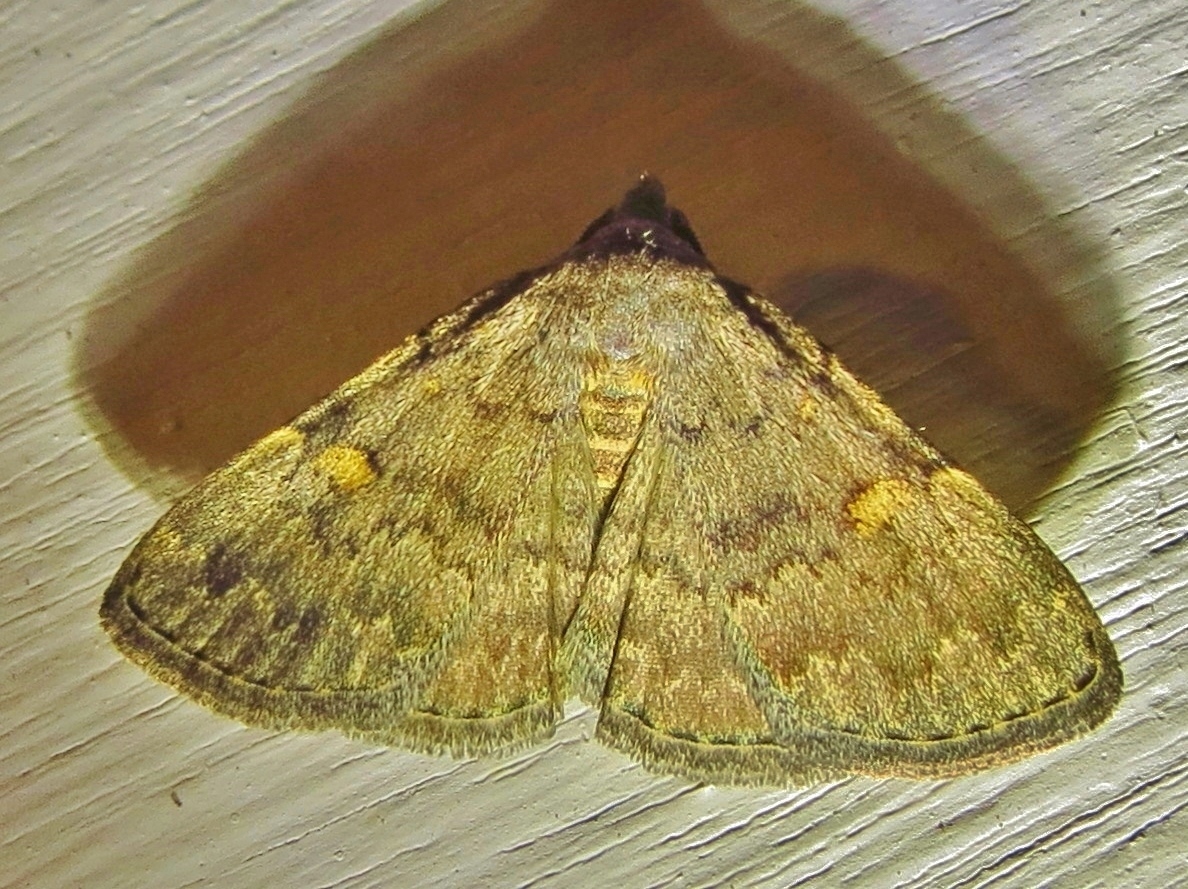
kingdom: Animalia
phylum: Arthropoda
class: Insecta
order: Lepidoptera
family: Erebidae
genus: Idia
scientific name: Idia aemula
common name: Common idia moth
